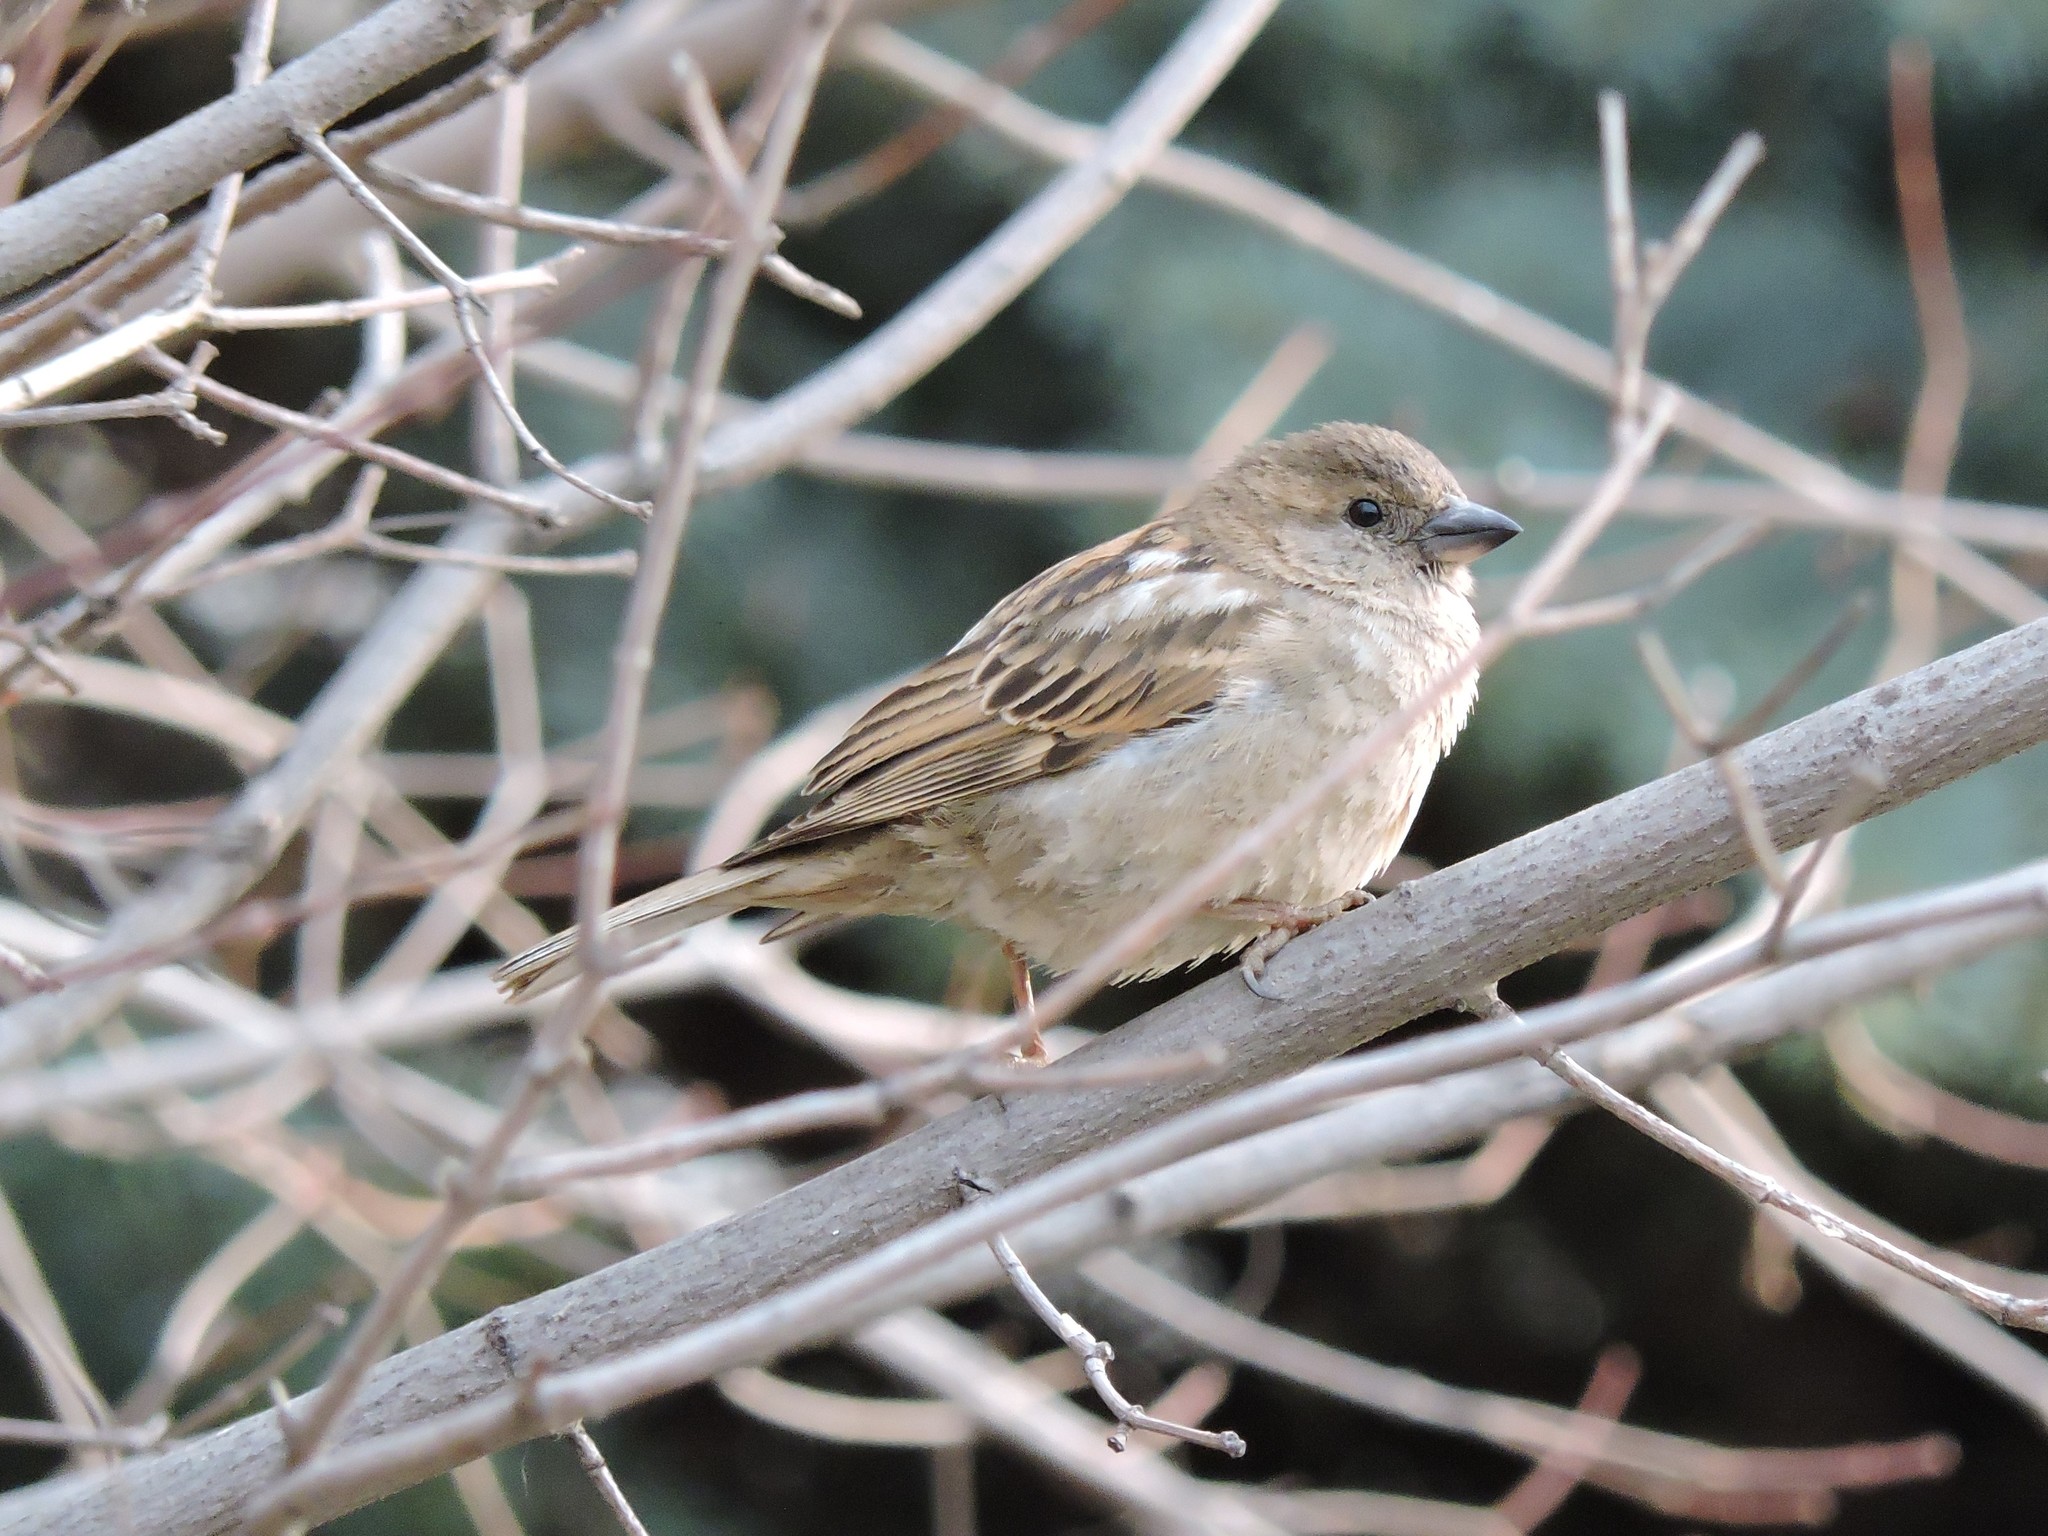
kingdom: Animalia
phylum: Chordata
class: Aves
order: Passeriformes
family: Passeridae
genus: Passer
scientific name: Passer domesticus
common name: House sparrow
